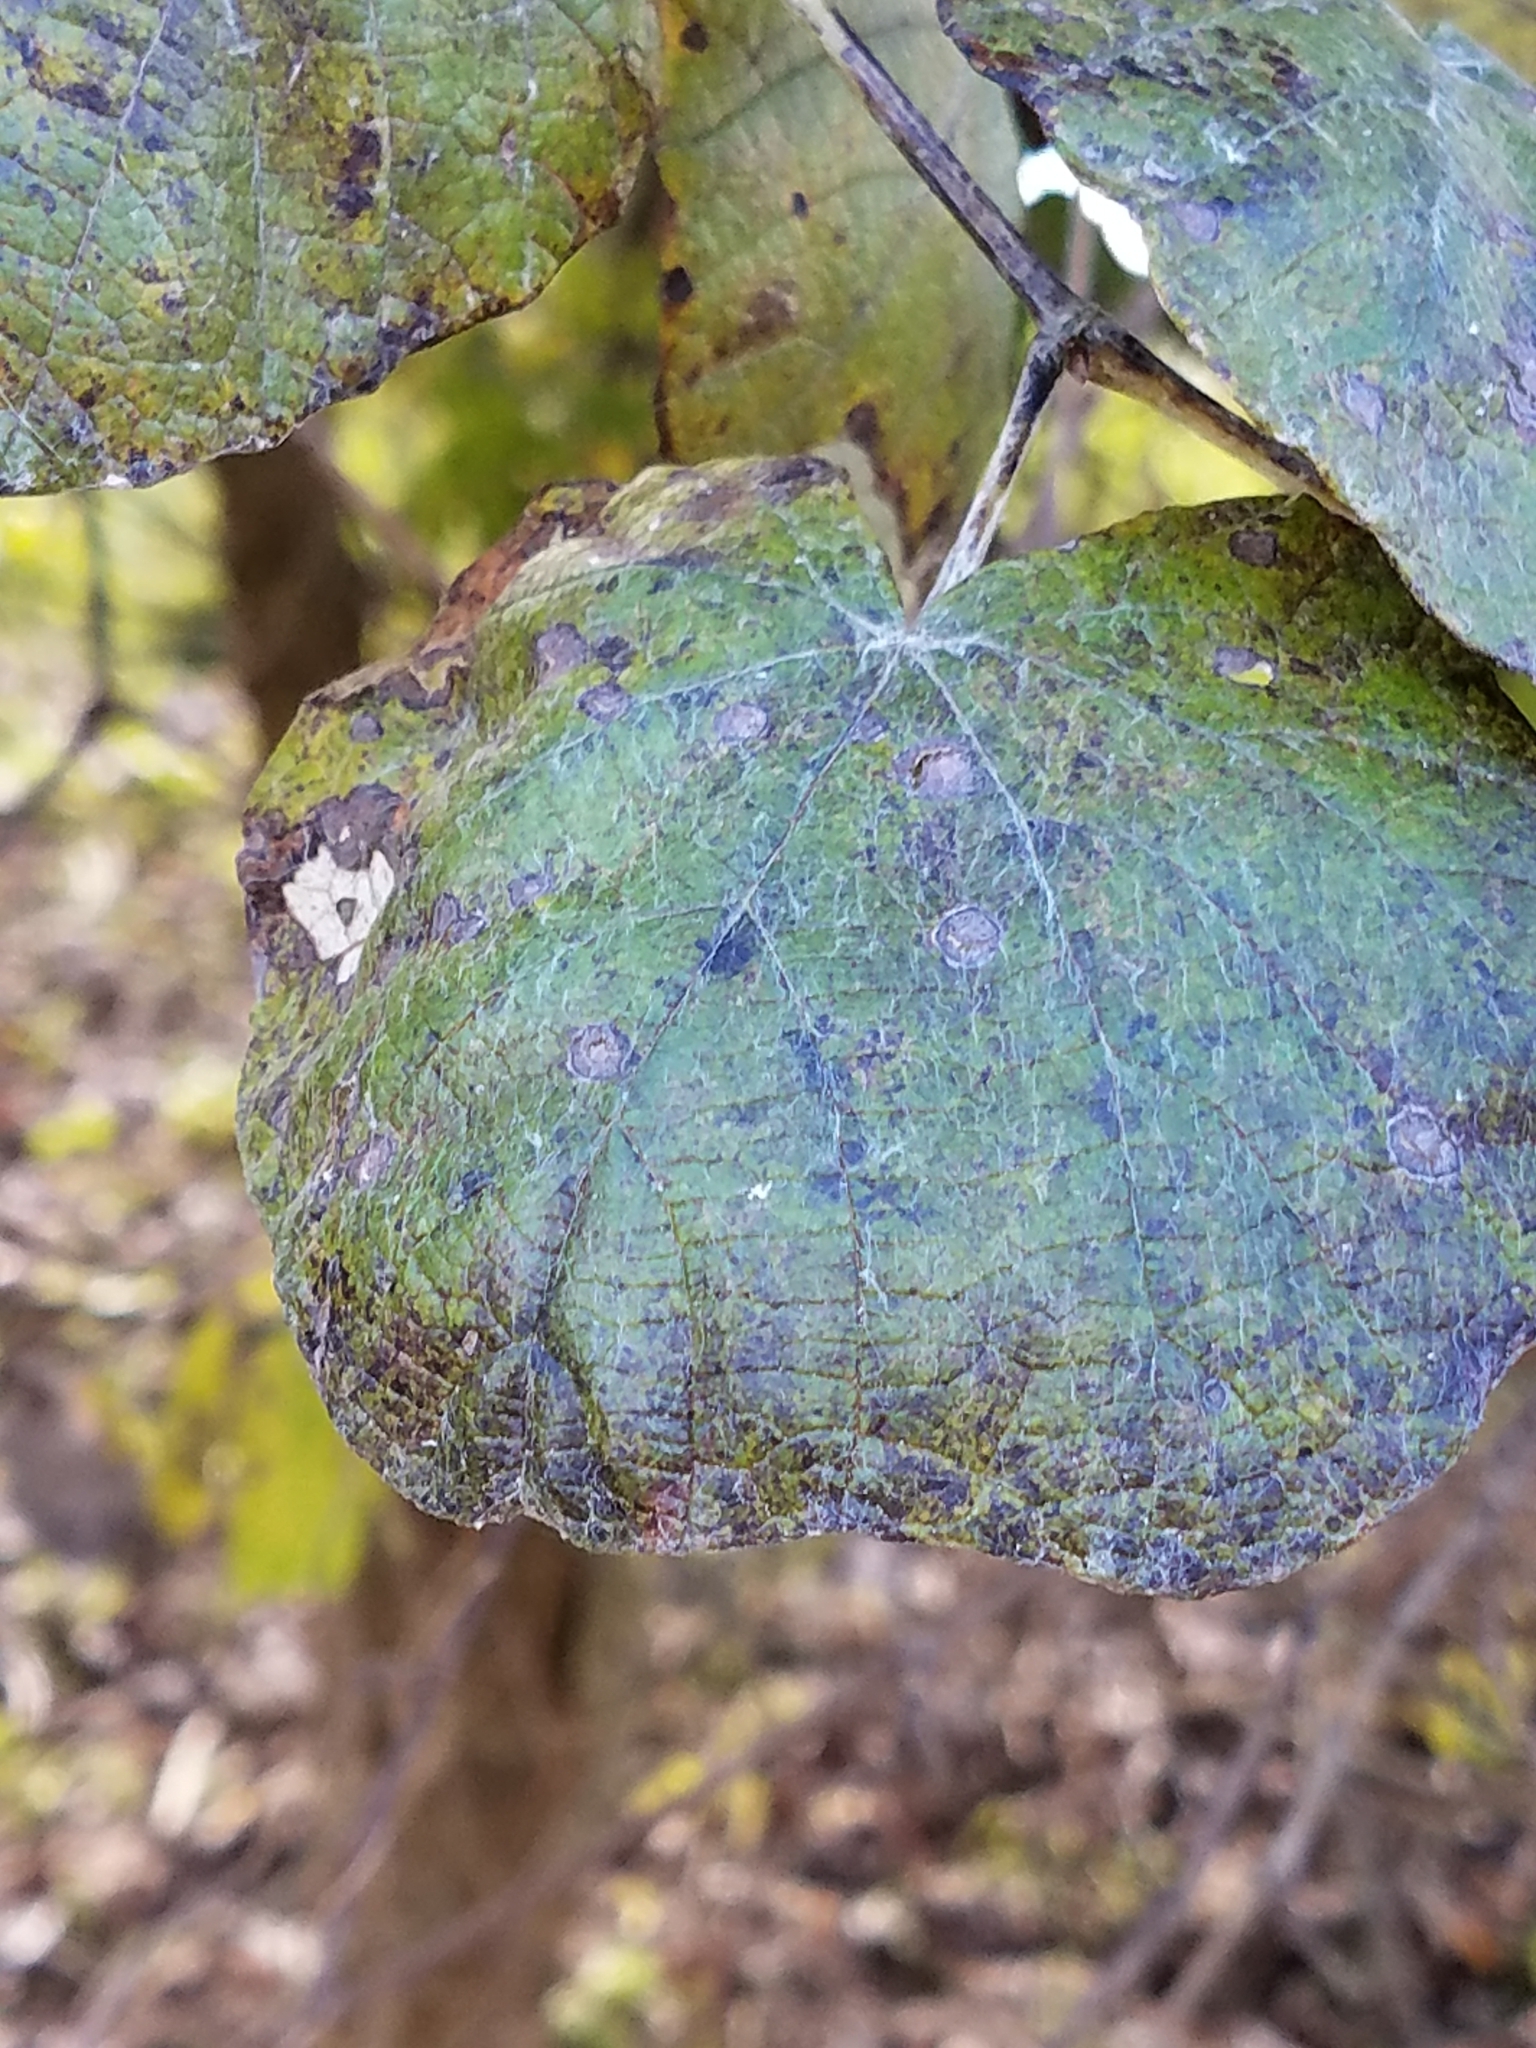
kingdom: Plantae
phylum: Tracheophyta
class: Magnoliopsida
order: Vitales
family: Vitaceae
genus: Vitis
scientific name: Vitis mustangensis
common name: Mustang grape
